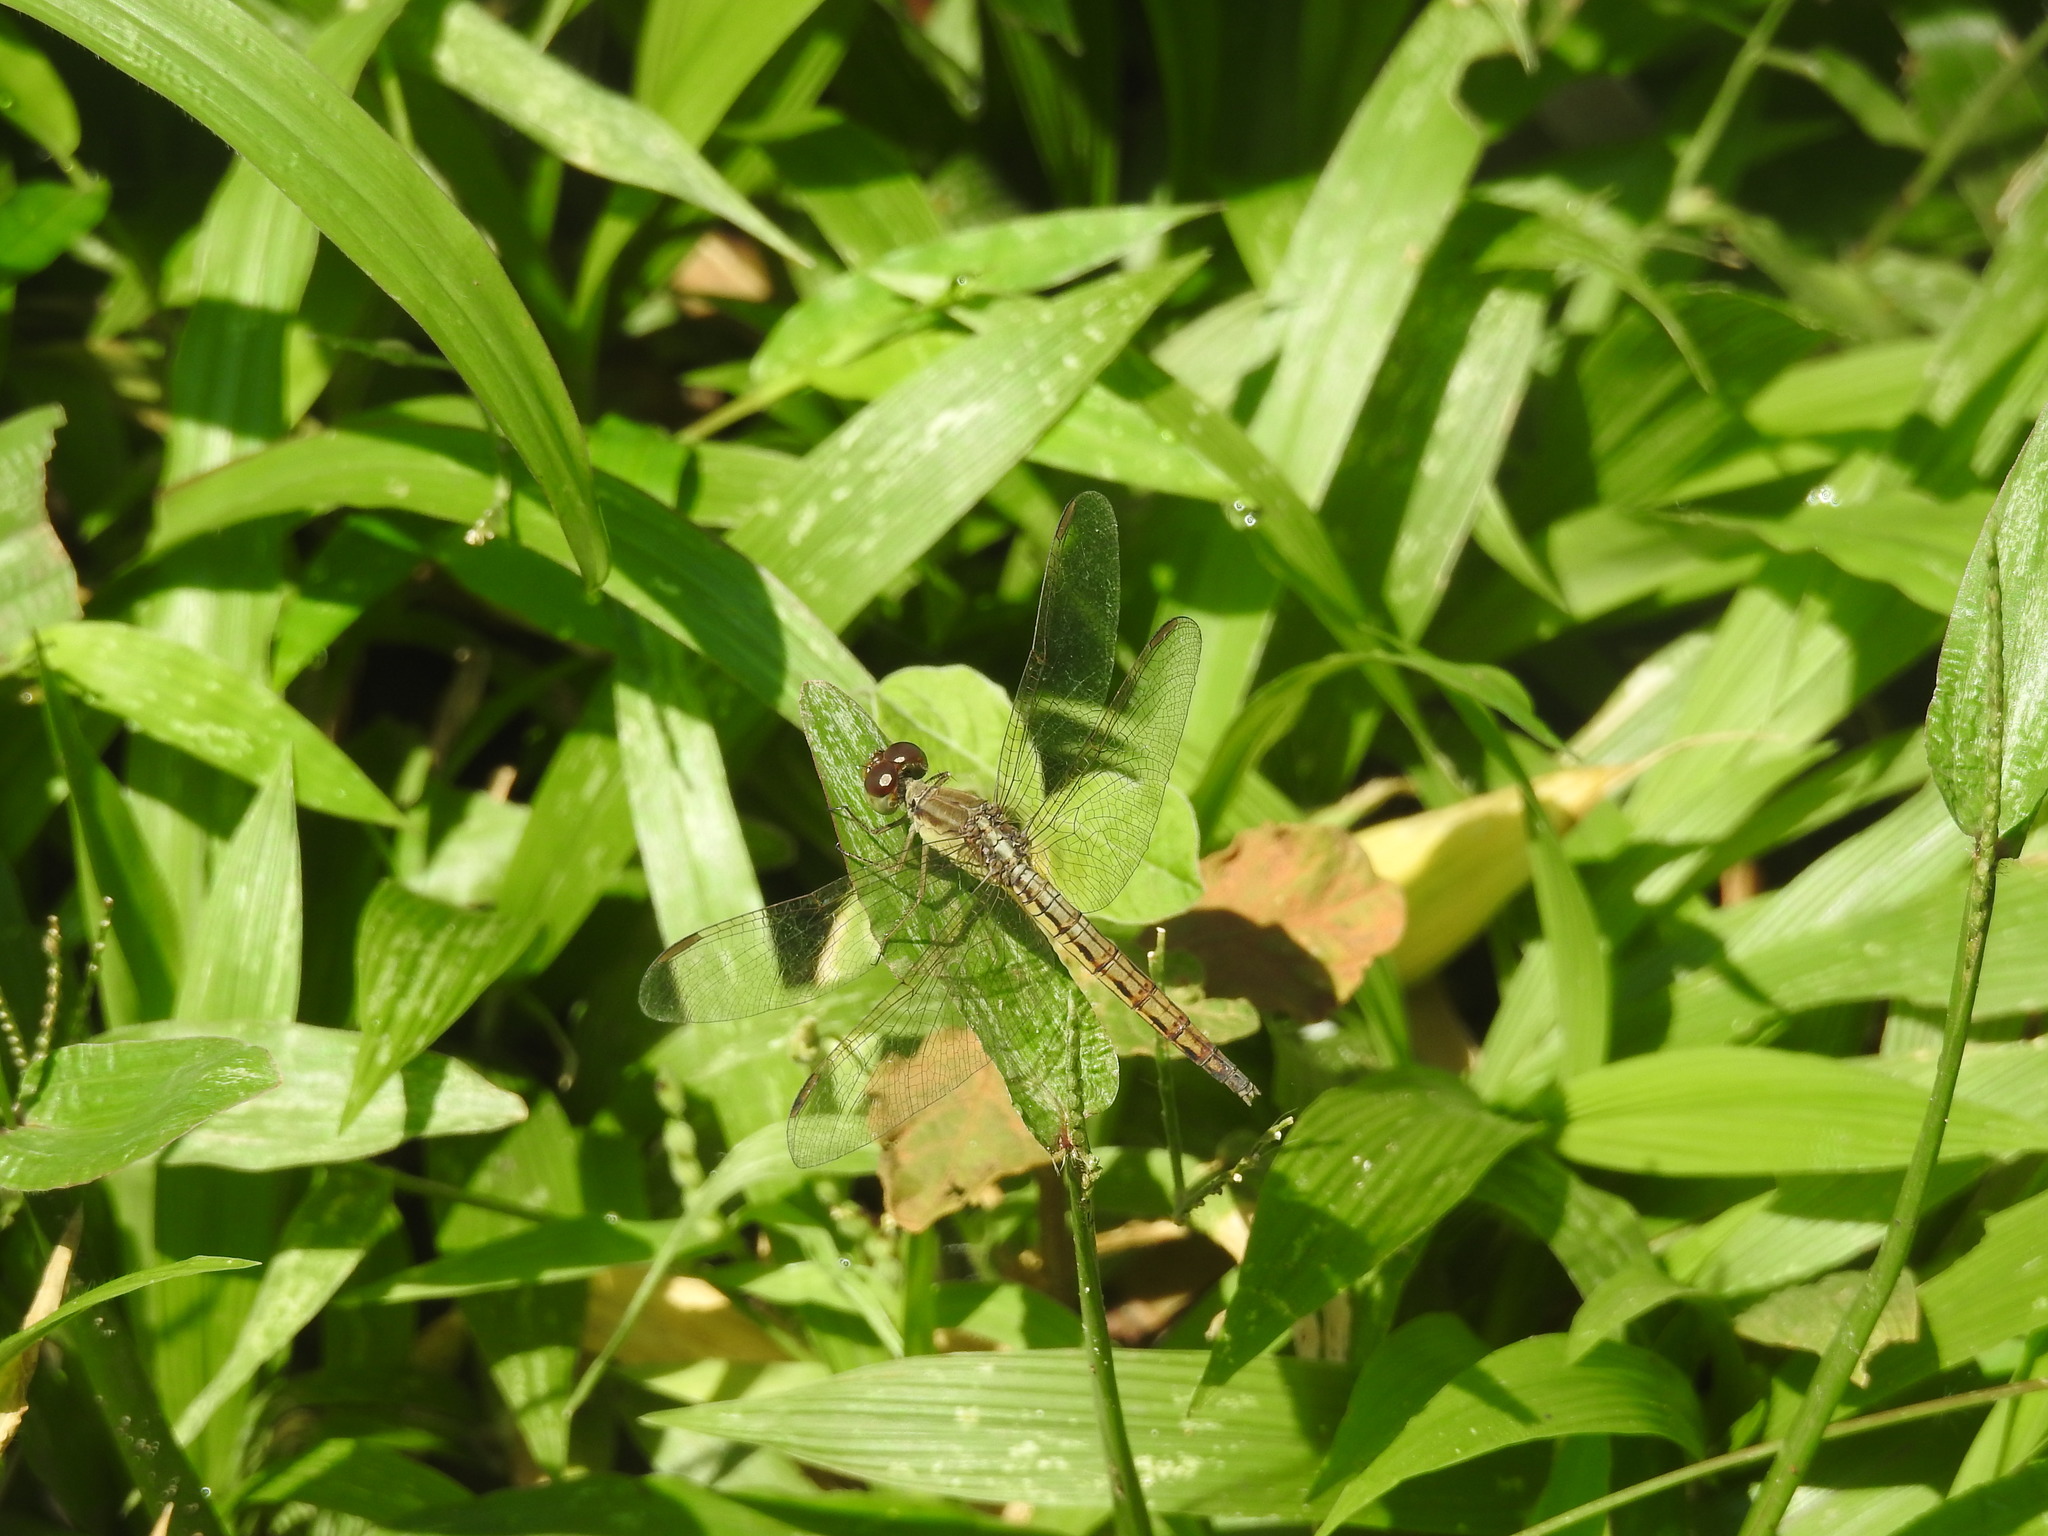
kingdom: Animalia
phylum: Arthropoda
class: Insecta
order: Odonata
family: Libellulidae
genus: Neurothemis
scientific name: Neurothemis intermedia
